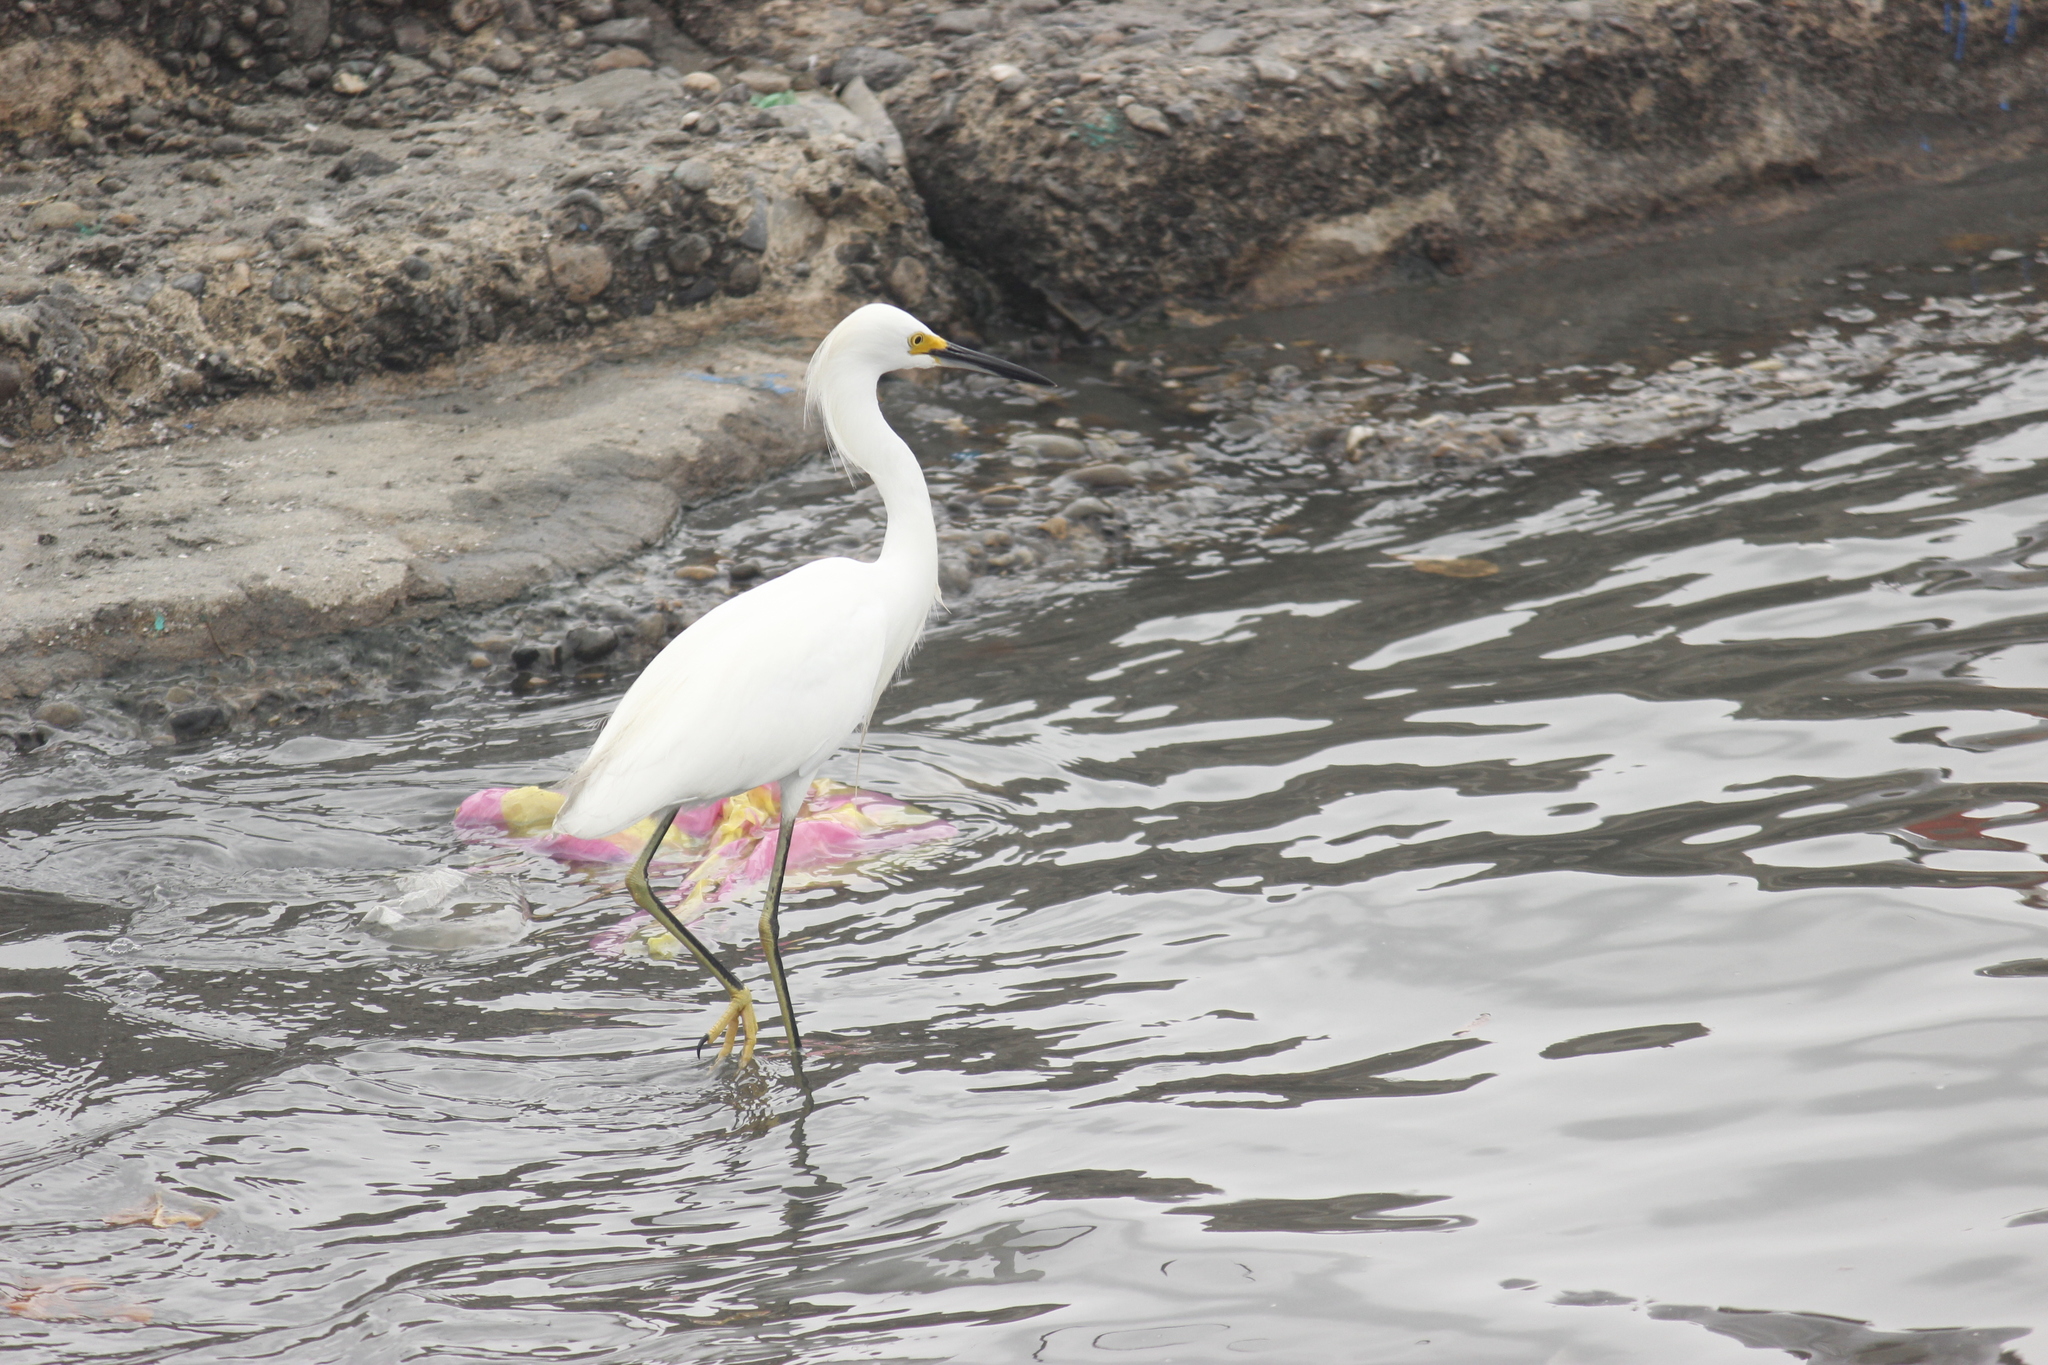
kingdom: Animalia
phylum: Chordata
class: Aves
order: Pelecaniformes
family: Ardeidae
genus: Egretta
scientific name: Egretta thula
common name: Snowy egret
